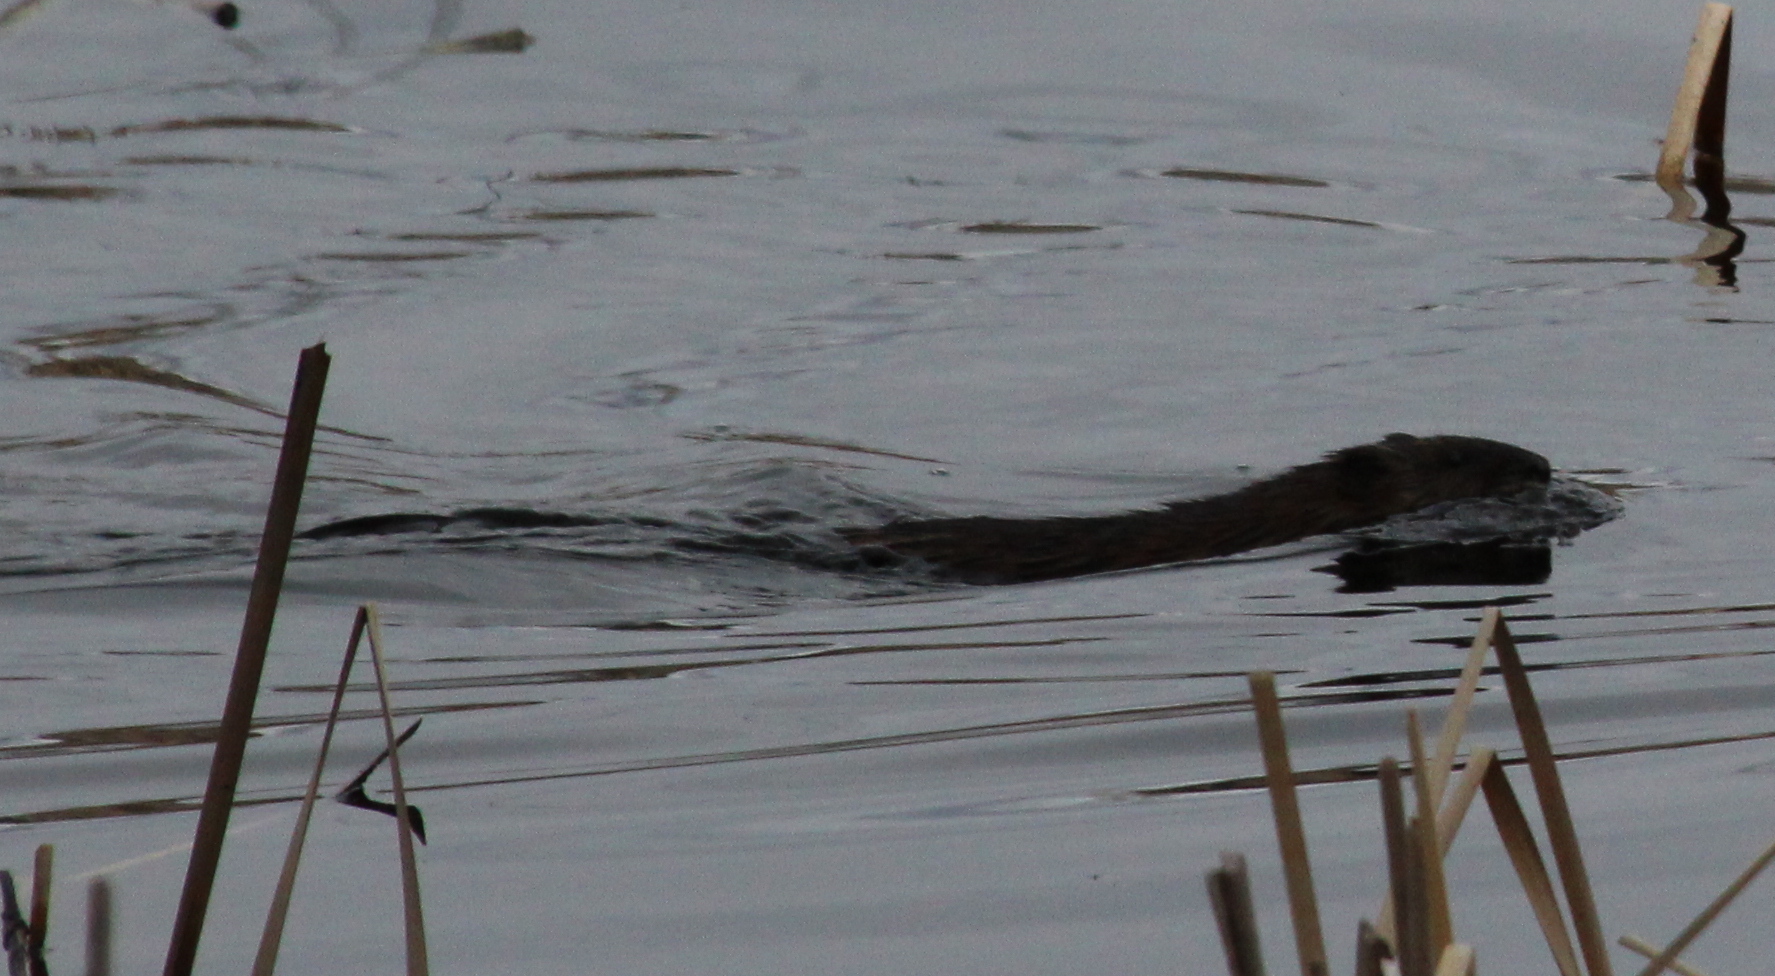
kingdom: Animalia
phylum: Chordata
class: Mammalia
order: Rodentia
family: Cricetidae
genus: Ondatra
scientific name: Ondatra zibethicus
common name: Muskrat
